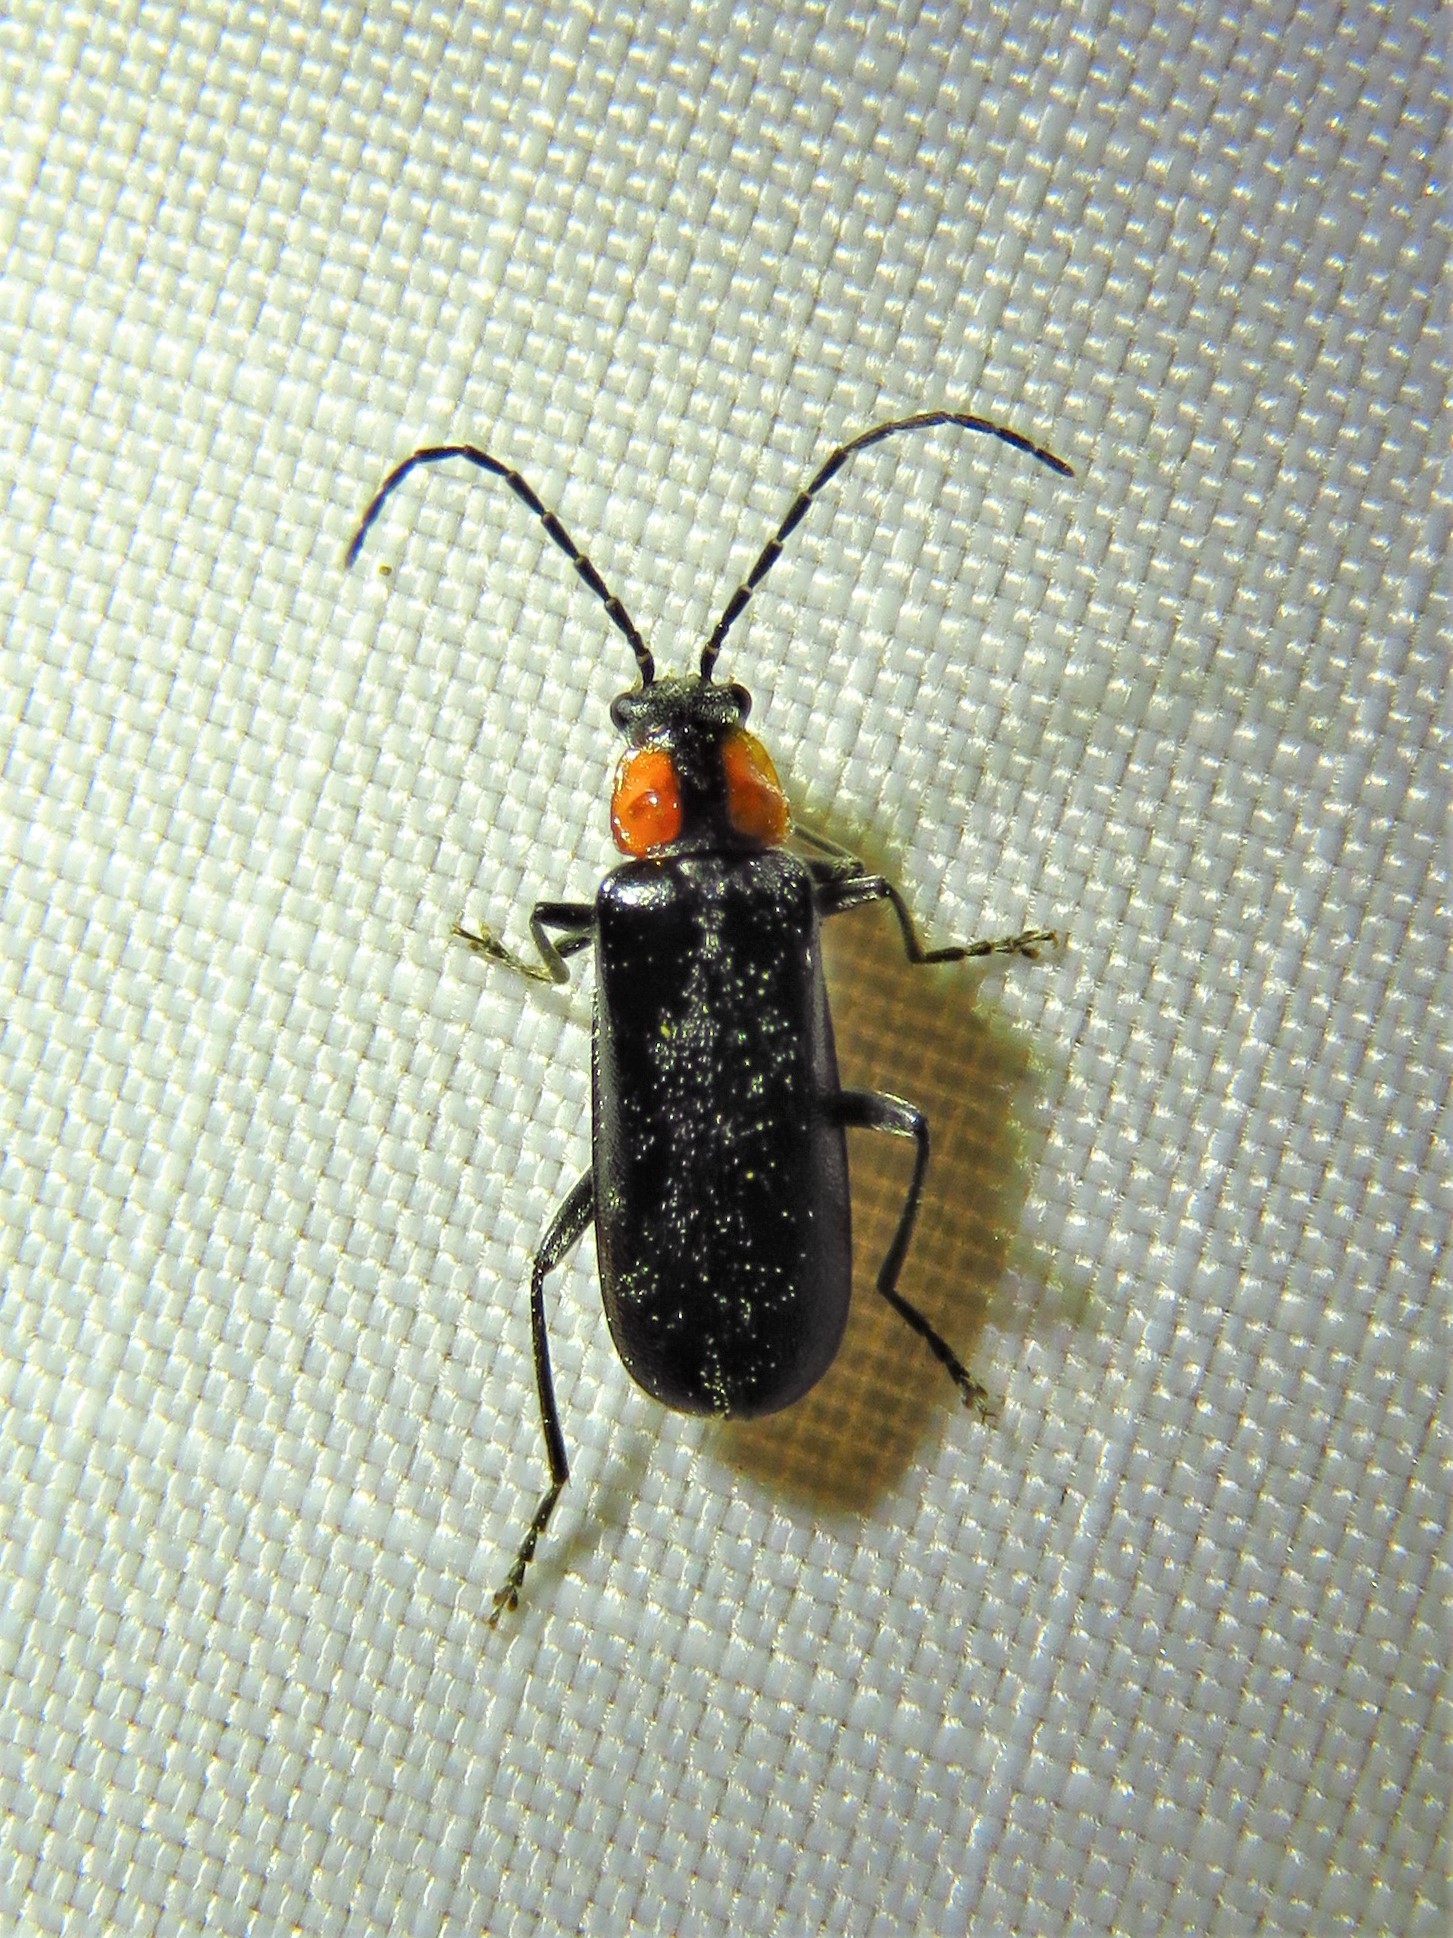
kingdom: Animalia
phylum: Arthropoda
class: Insecta
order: Coleoptera
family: Cantharidae
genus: Rhagonycha
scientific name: Rhagonycha lineola
